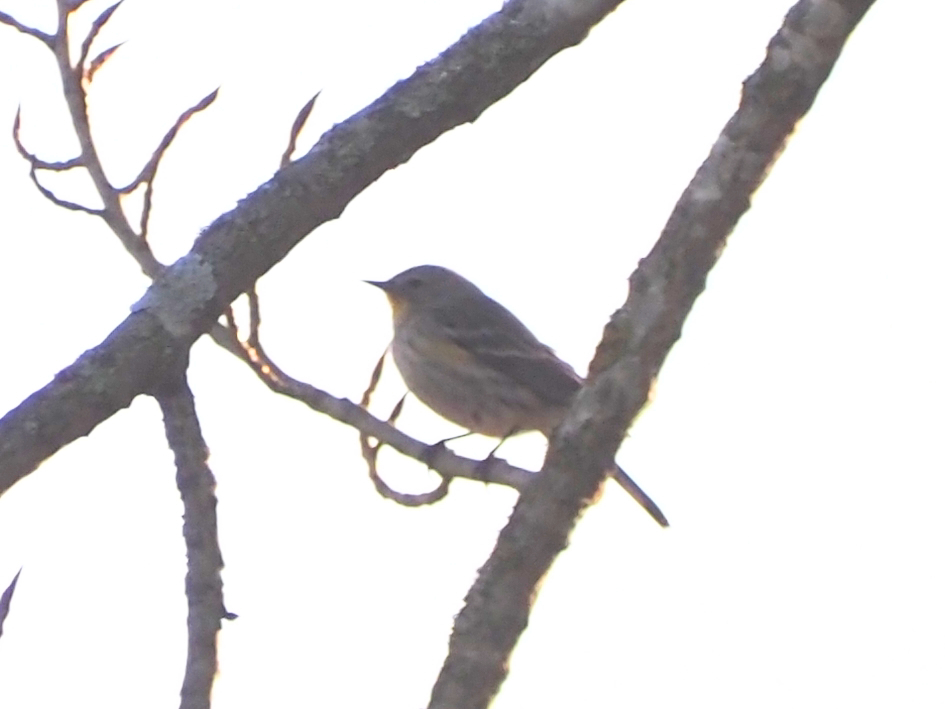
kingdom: Animalia
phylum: Chordata
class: Aves
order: Passeriformes
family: Parulidae
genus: Setophaga
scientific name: Setophaga coronata
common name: Myrtle warbler
